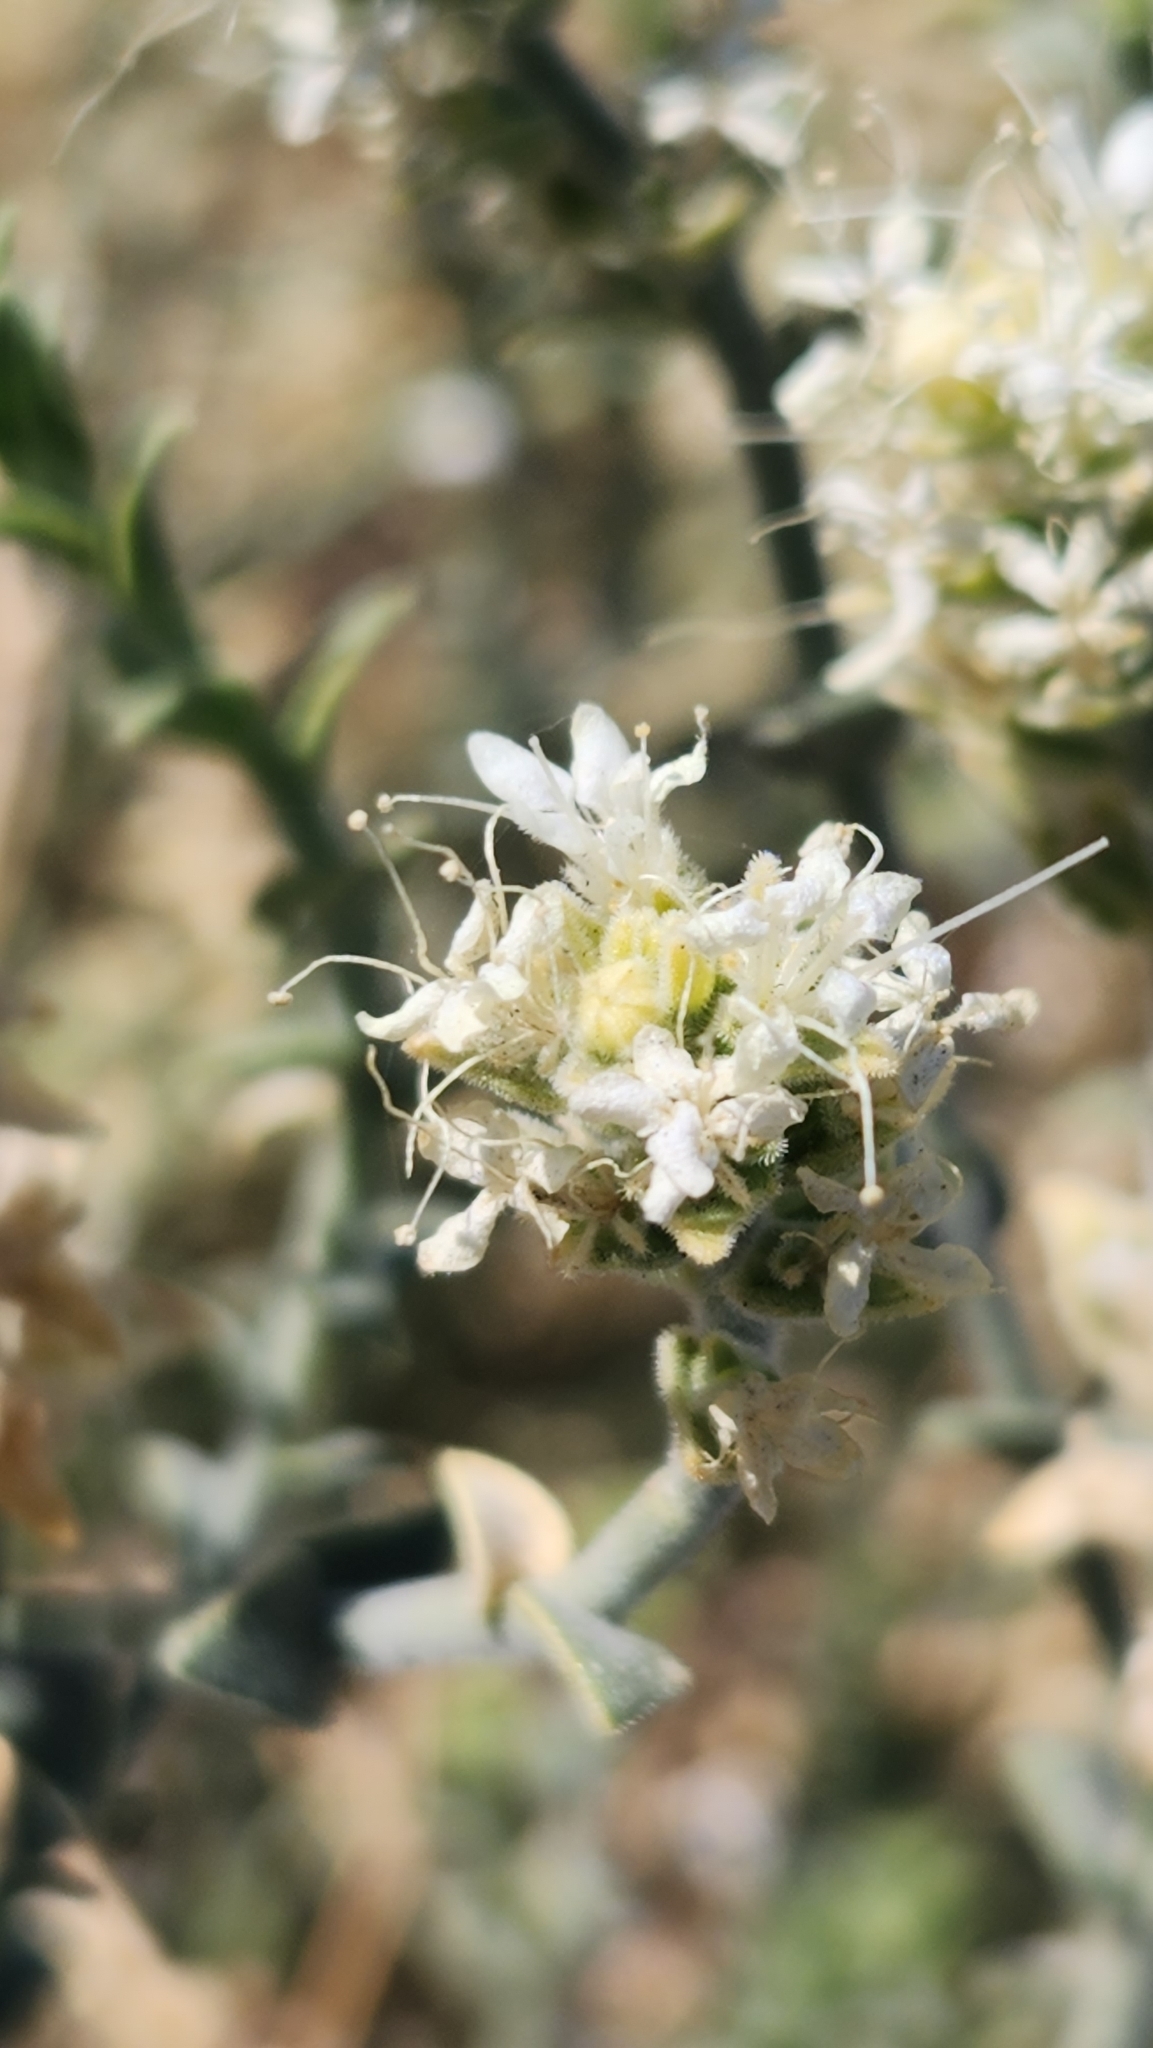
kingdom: Plantae
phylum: Tracheophyta
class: Magnoliopsida
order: Cornales
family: Loasaceae
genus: Petalonyx
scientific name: Petalonyx thurberi
